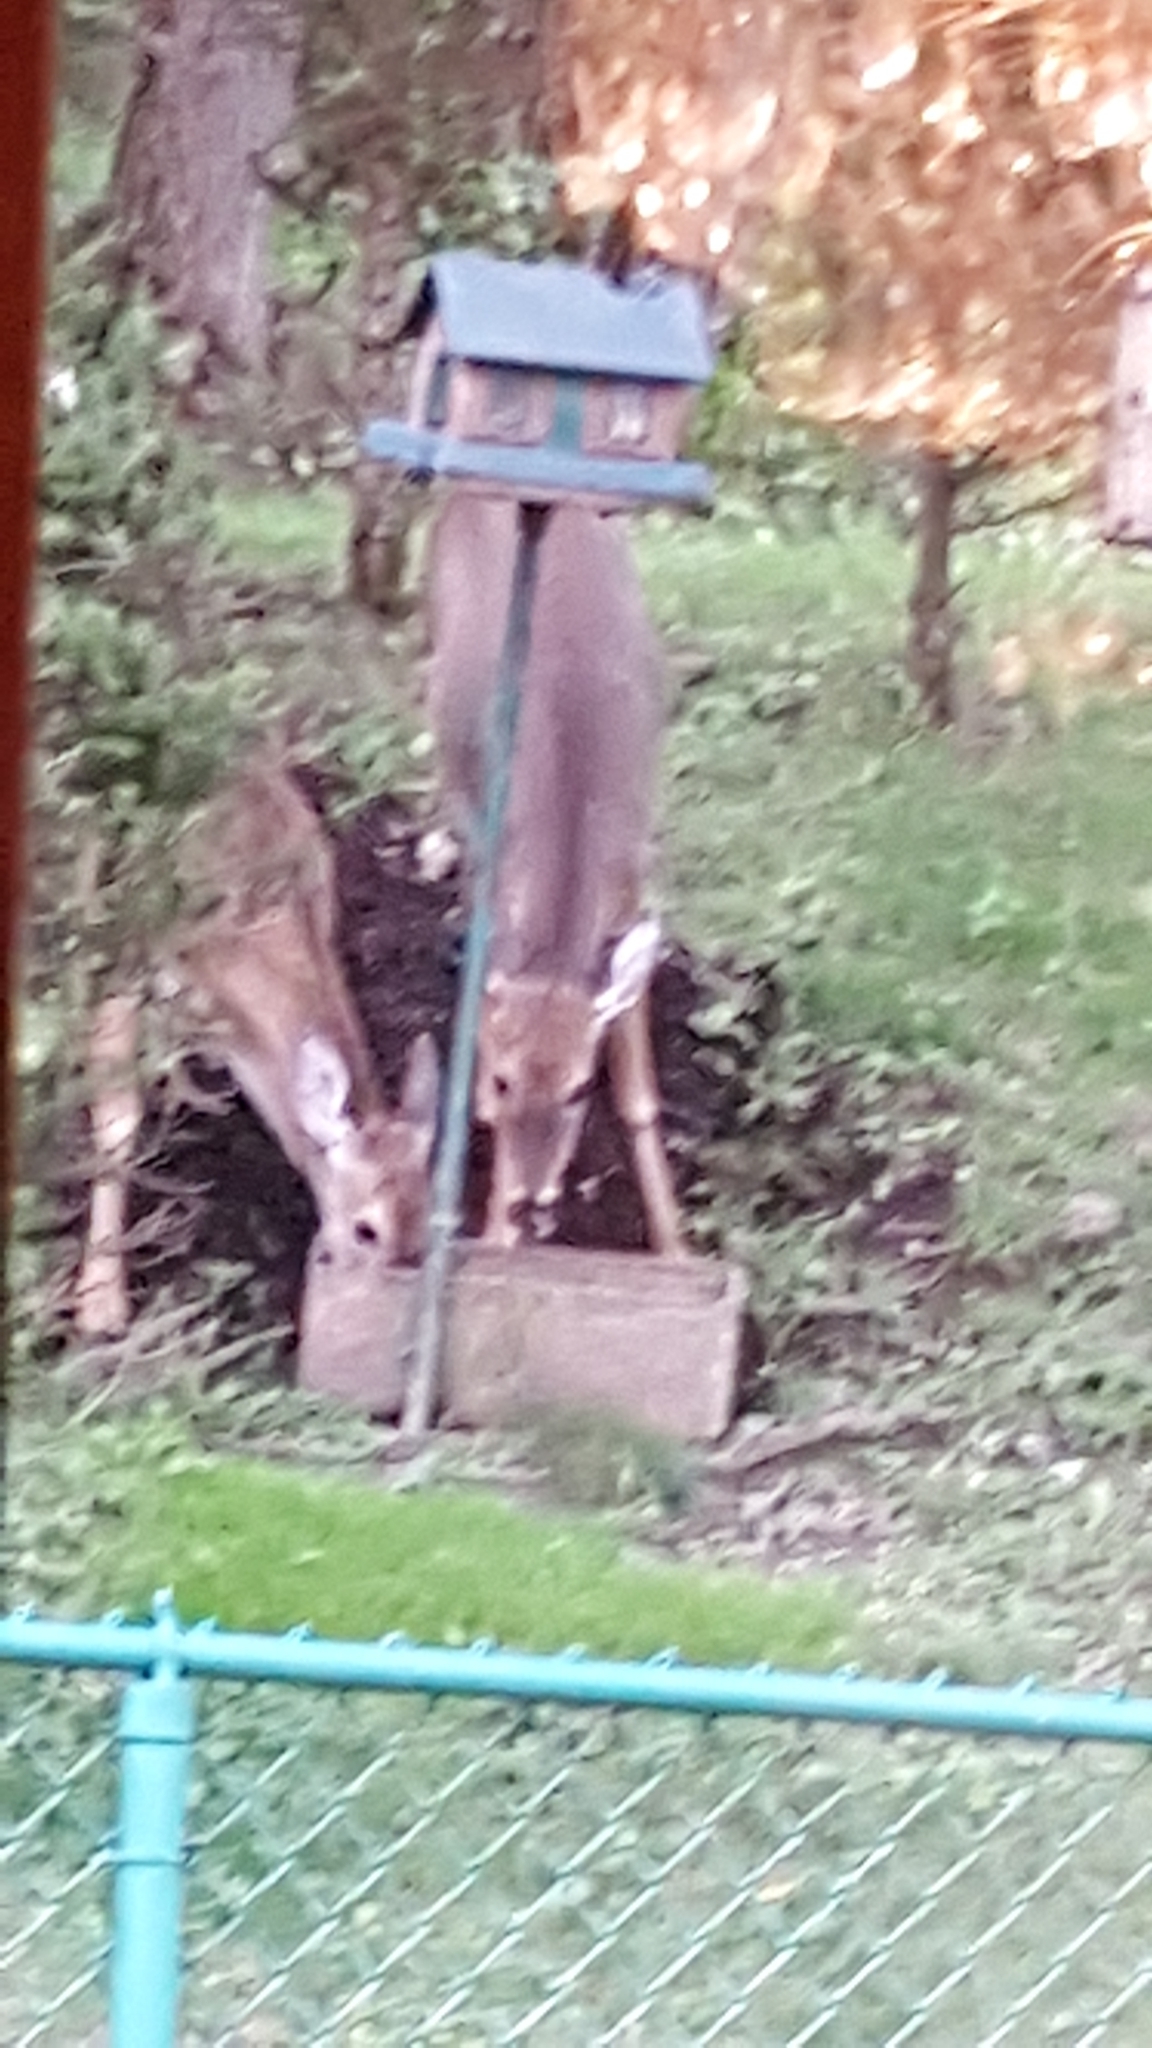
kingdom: Animalia
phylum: Chordata
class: Mammalia
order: Artiodactyla
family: Cervidae
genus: Odocoileus
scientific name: Odocoileus virginianus
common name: White-tailed deer
